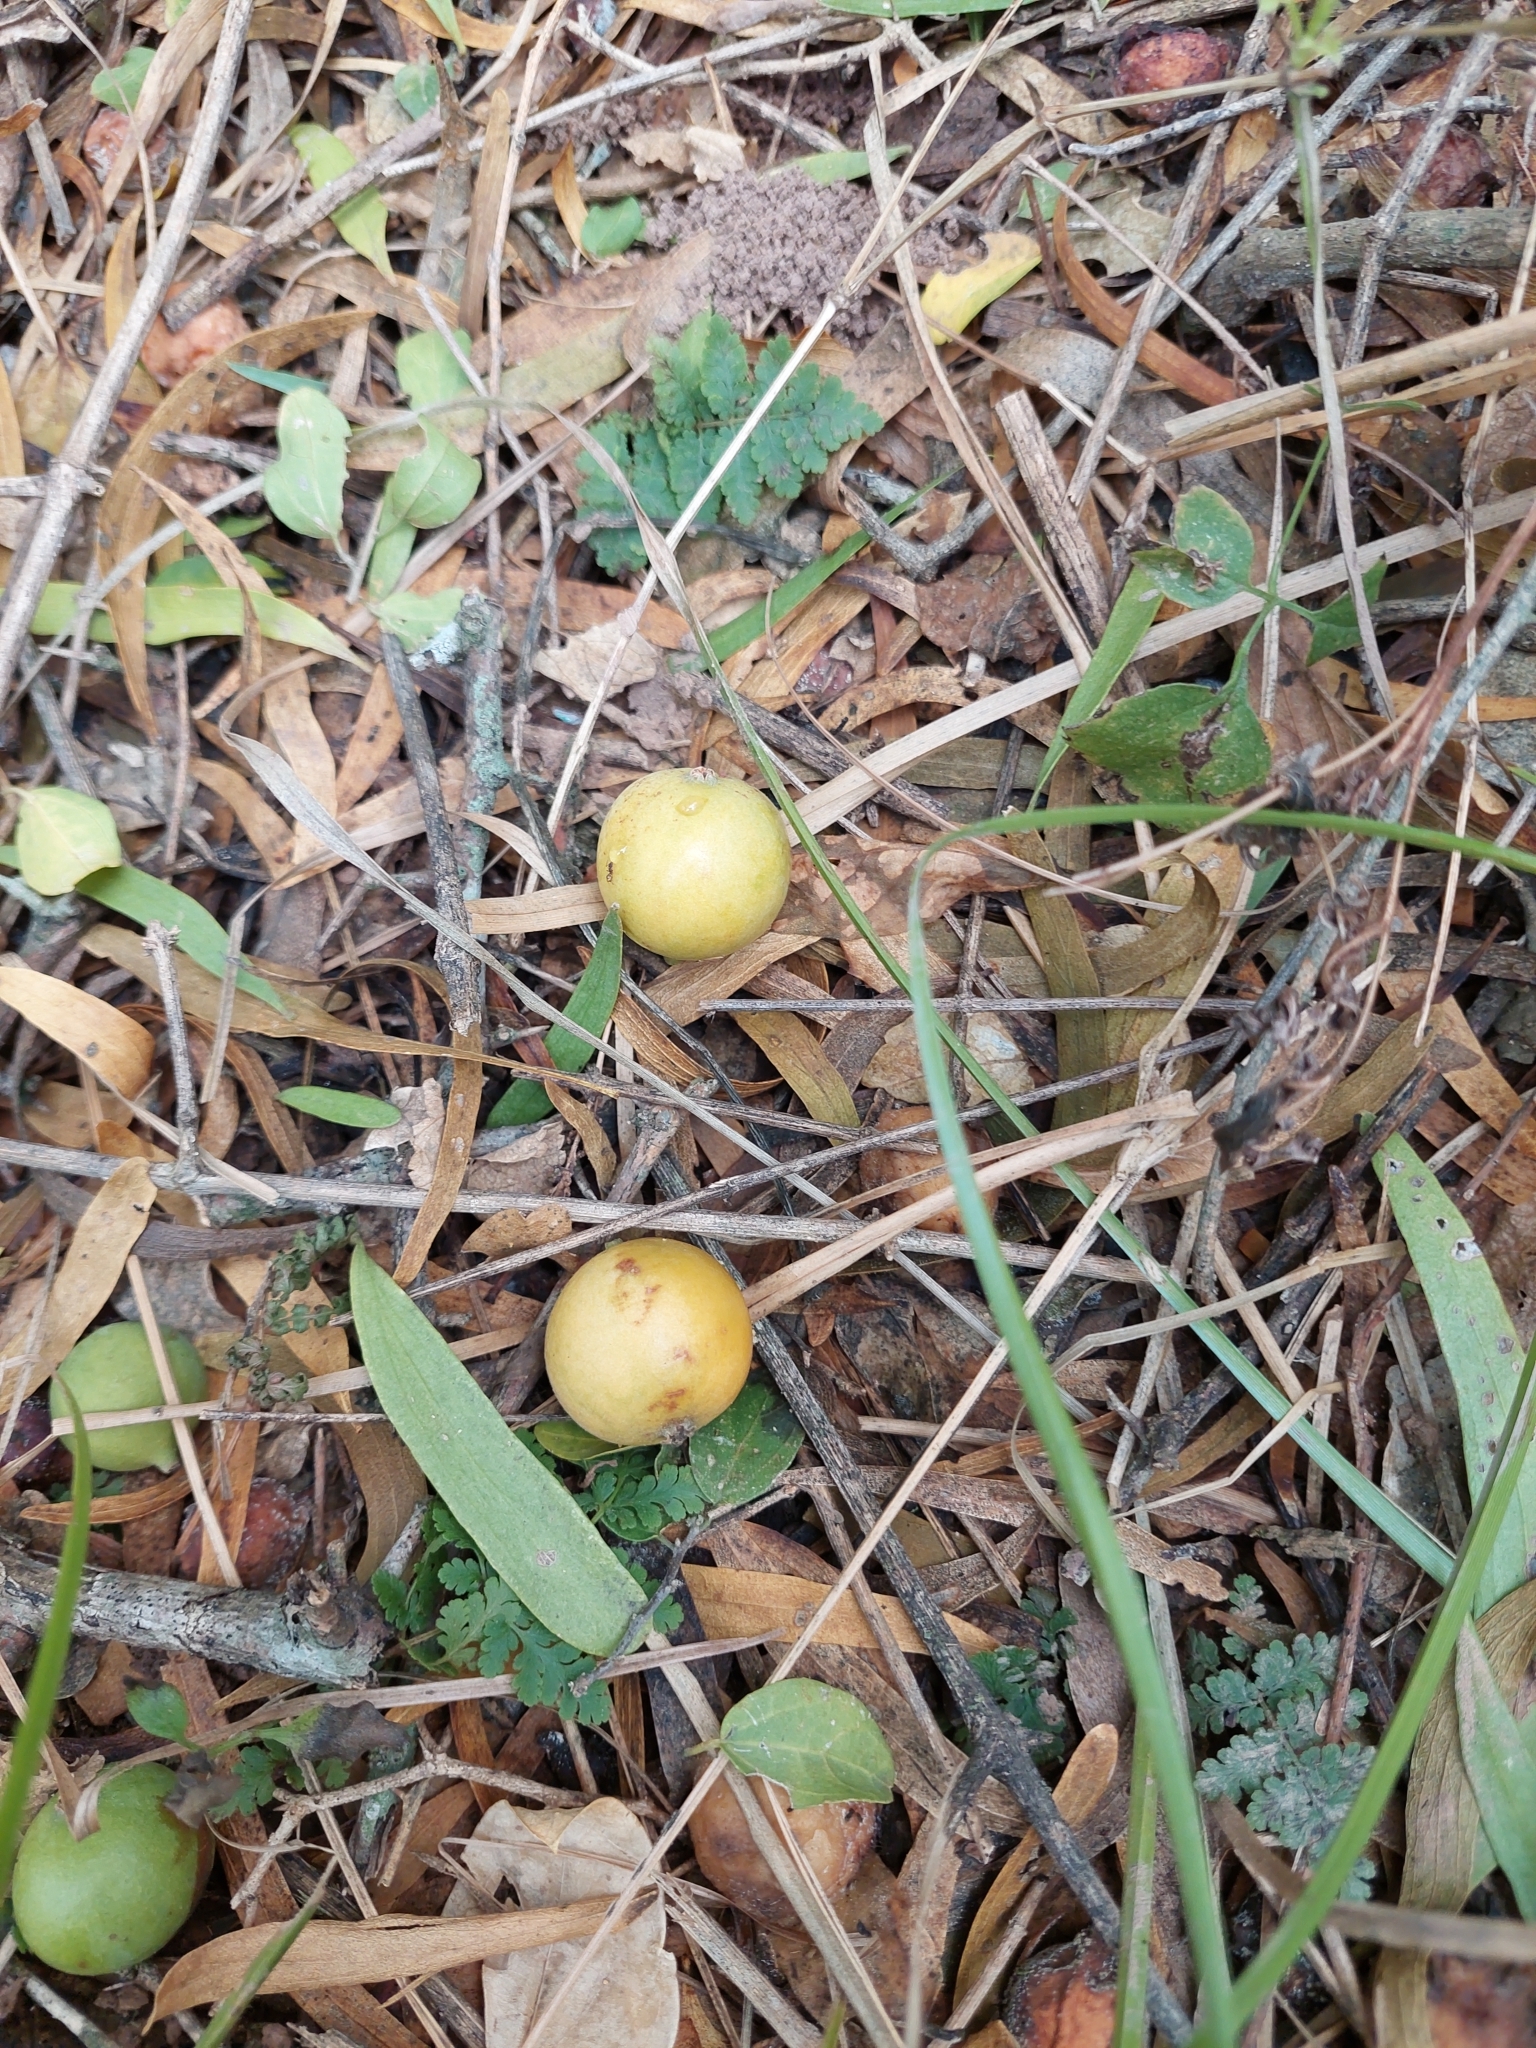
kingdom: Plantae
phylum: Tracheophyta
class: Magnoliopsida
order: Santalales
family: Cervantesiaceae
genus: Acanthosyris
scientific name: Acanthosyris falcata
